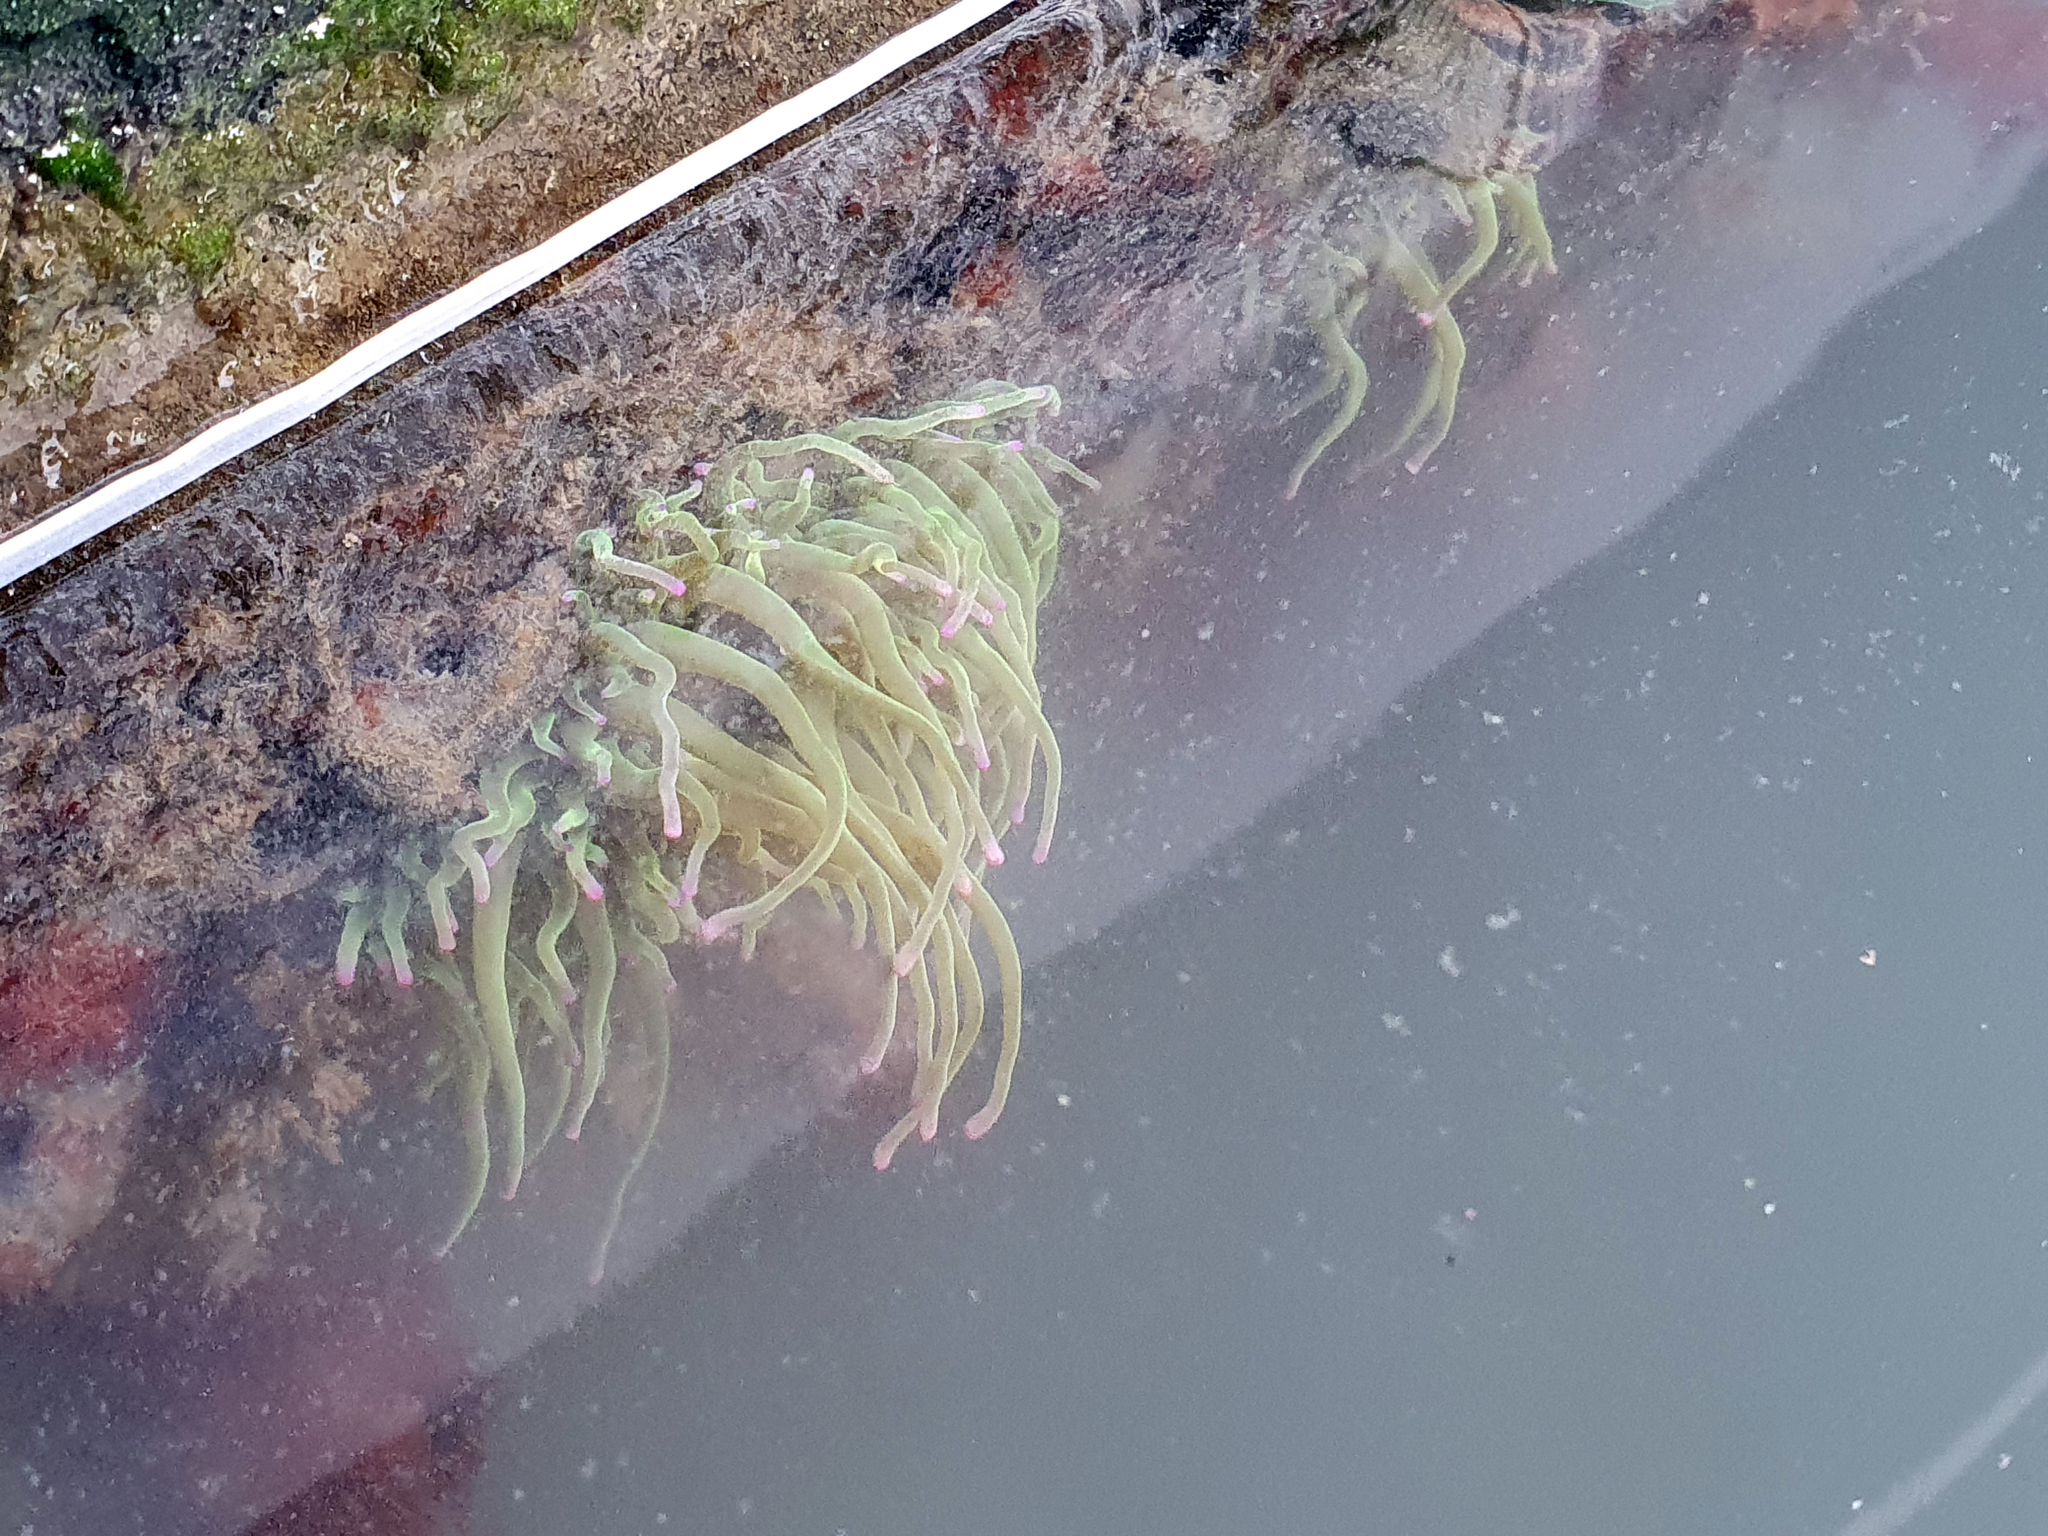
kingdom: Animalia
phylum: Cnidaria
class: Anthozoa
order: Actiniaria
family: Actiniidae
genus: Anemonia
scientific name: Anemonia viridis
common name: Snakelocks anemone
